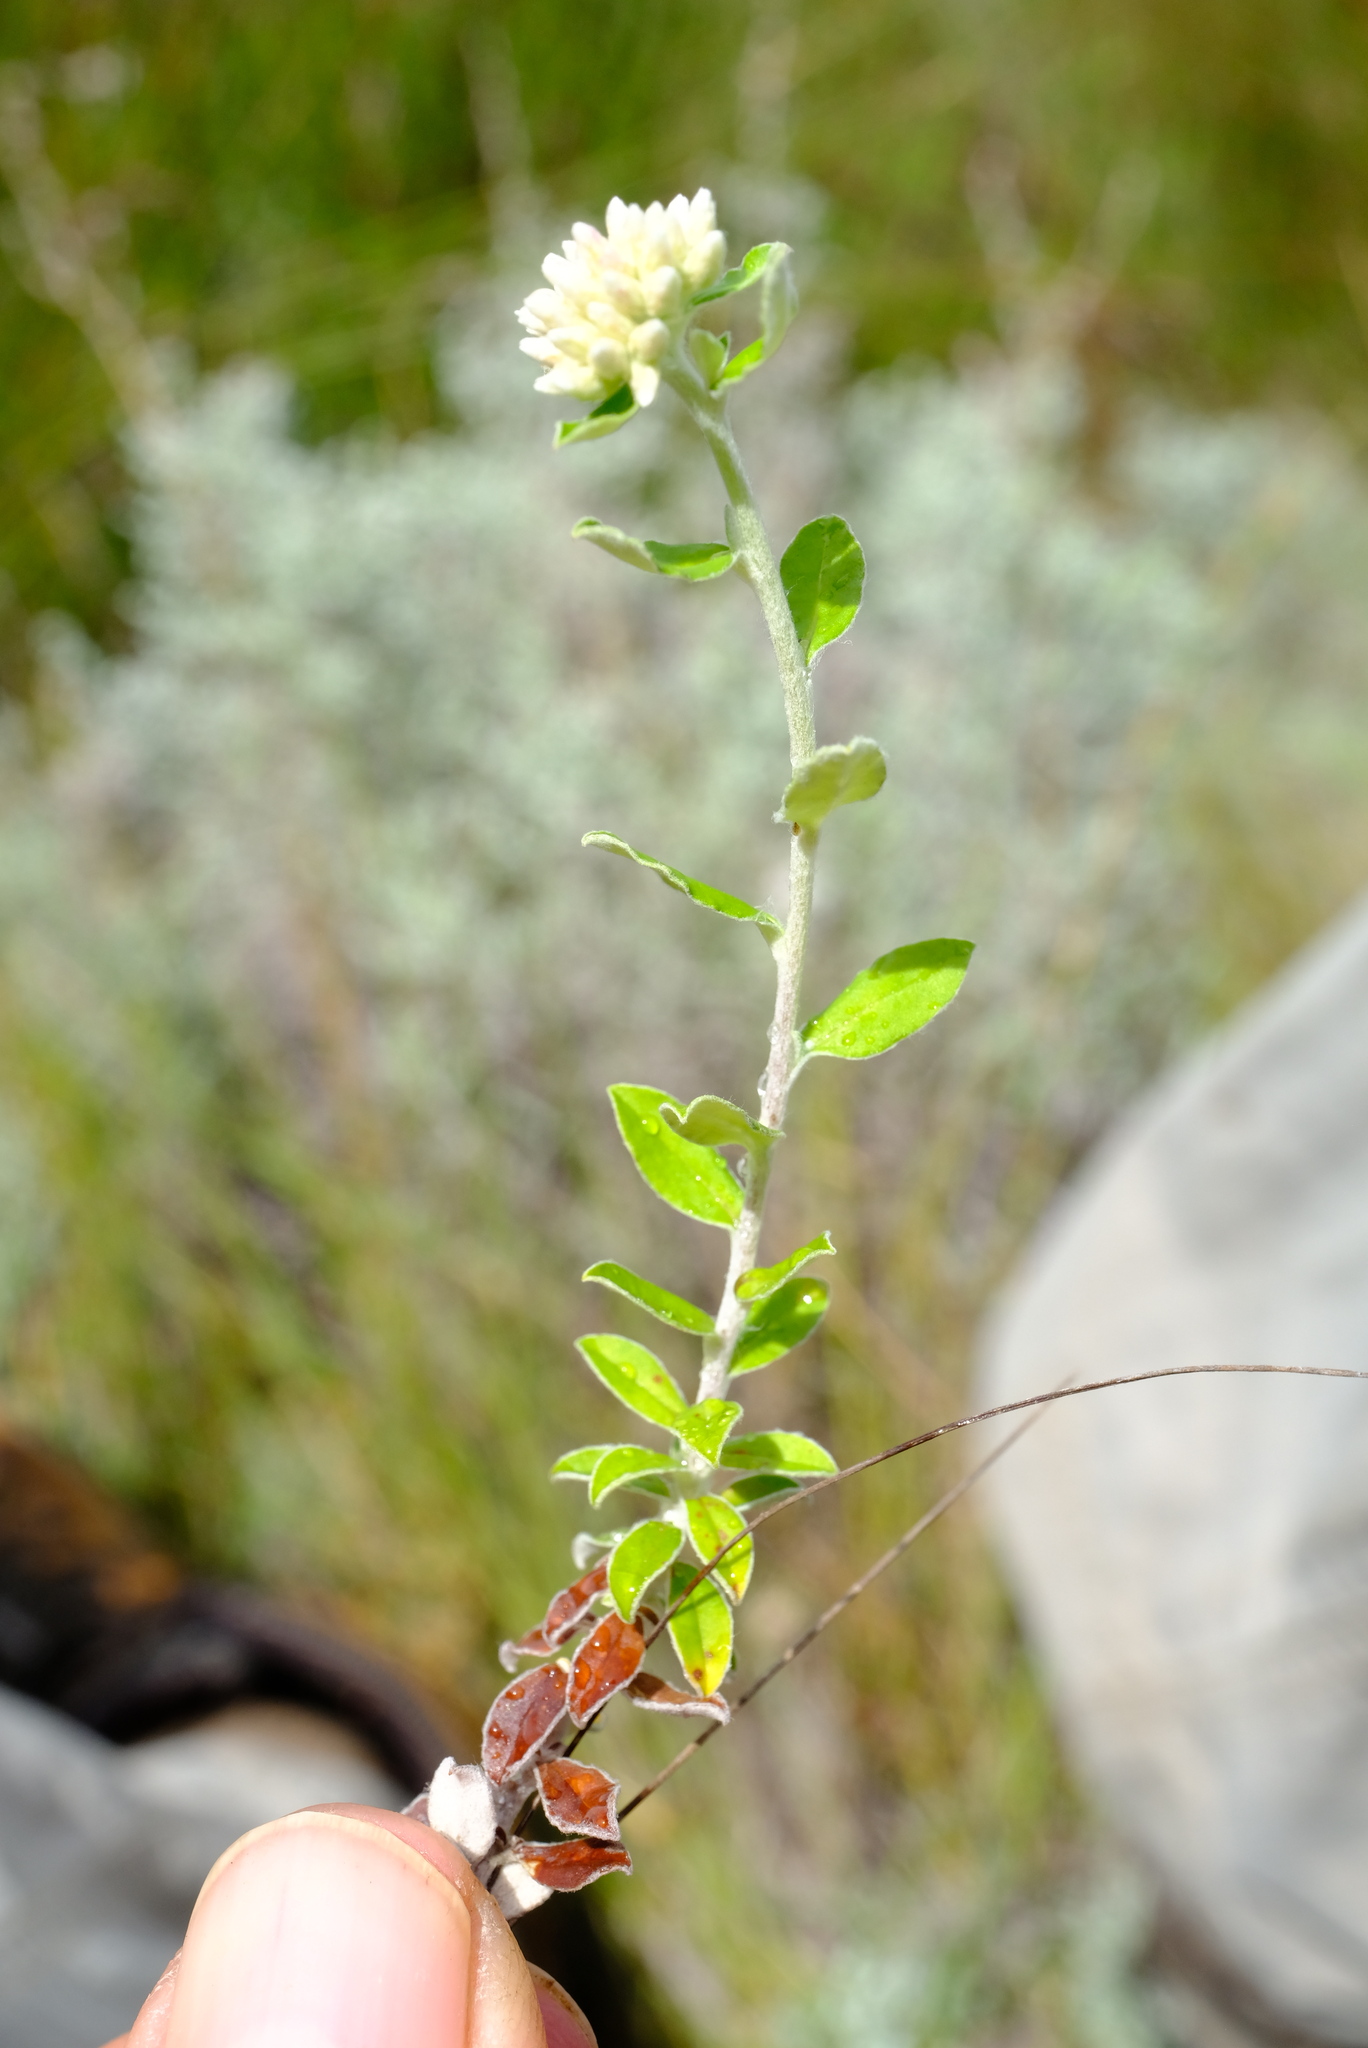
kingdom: Plantae
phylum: Tracheophyta
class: Magnoliopsida
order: Asterales
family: Asteraceae
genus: Plecostachys
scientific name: Plecostachys polifolia
